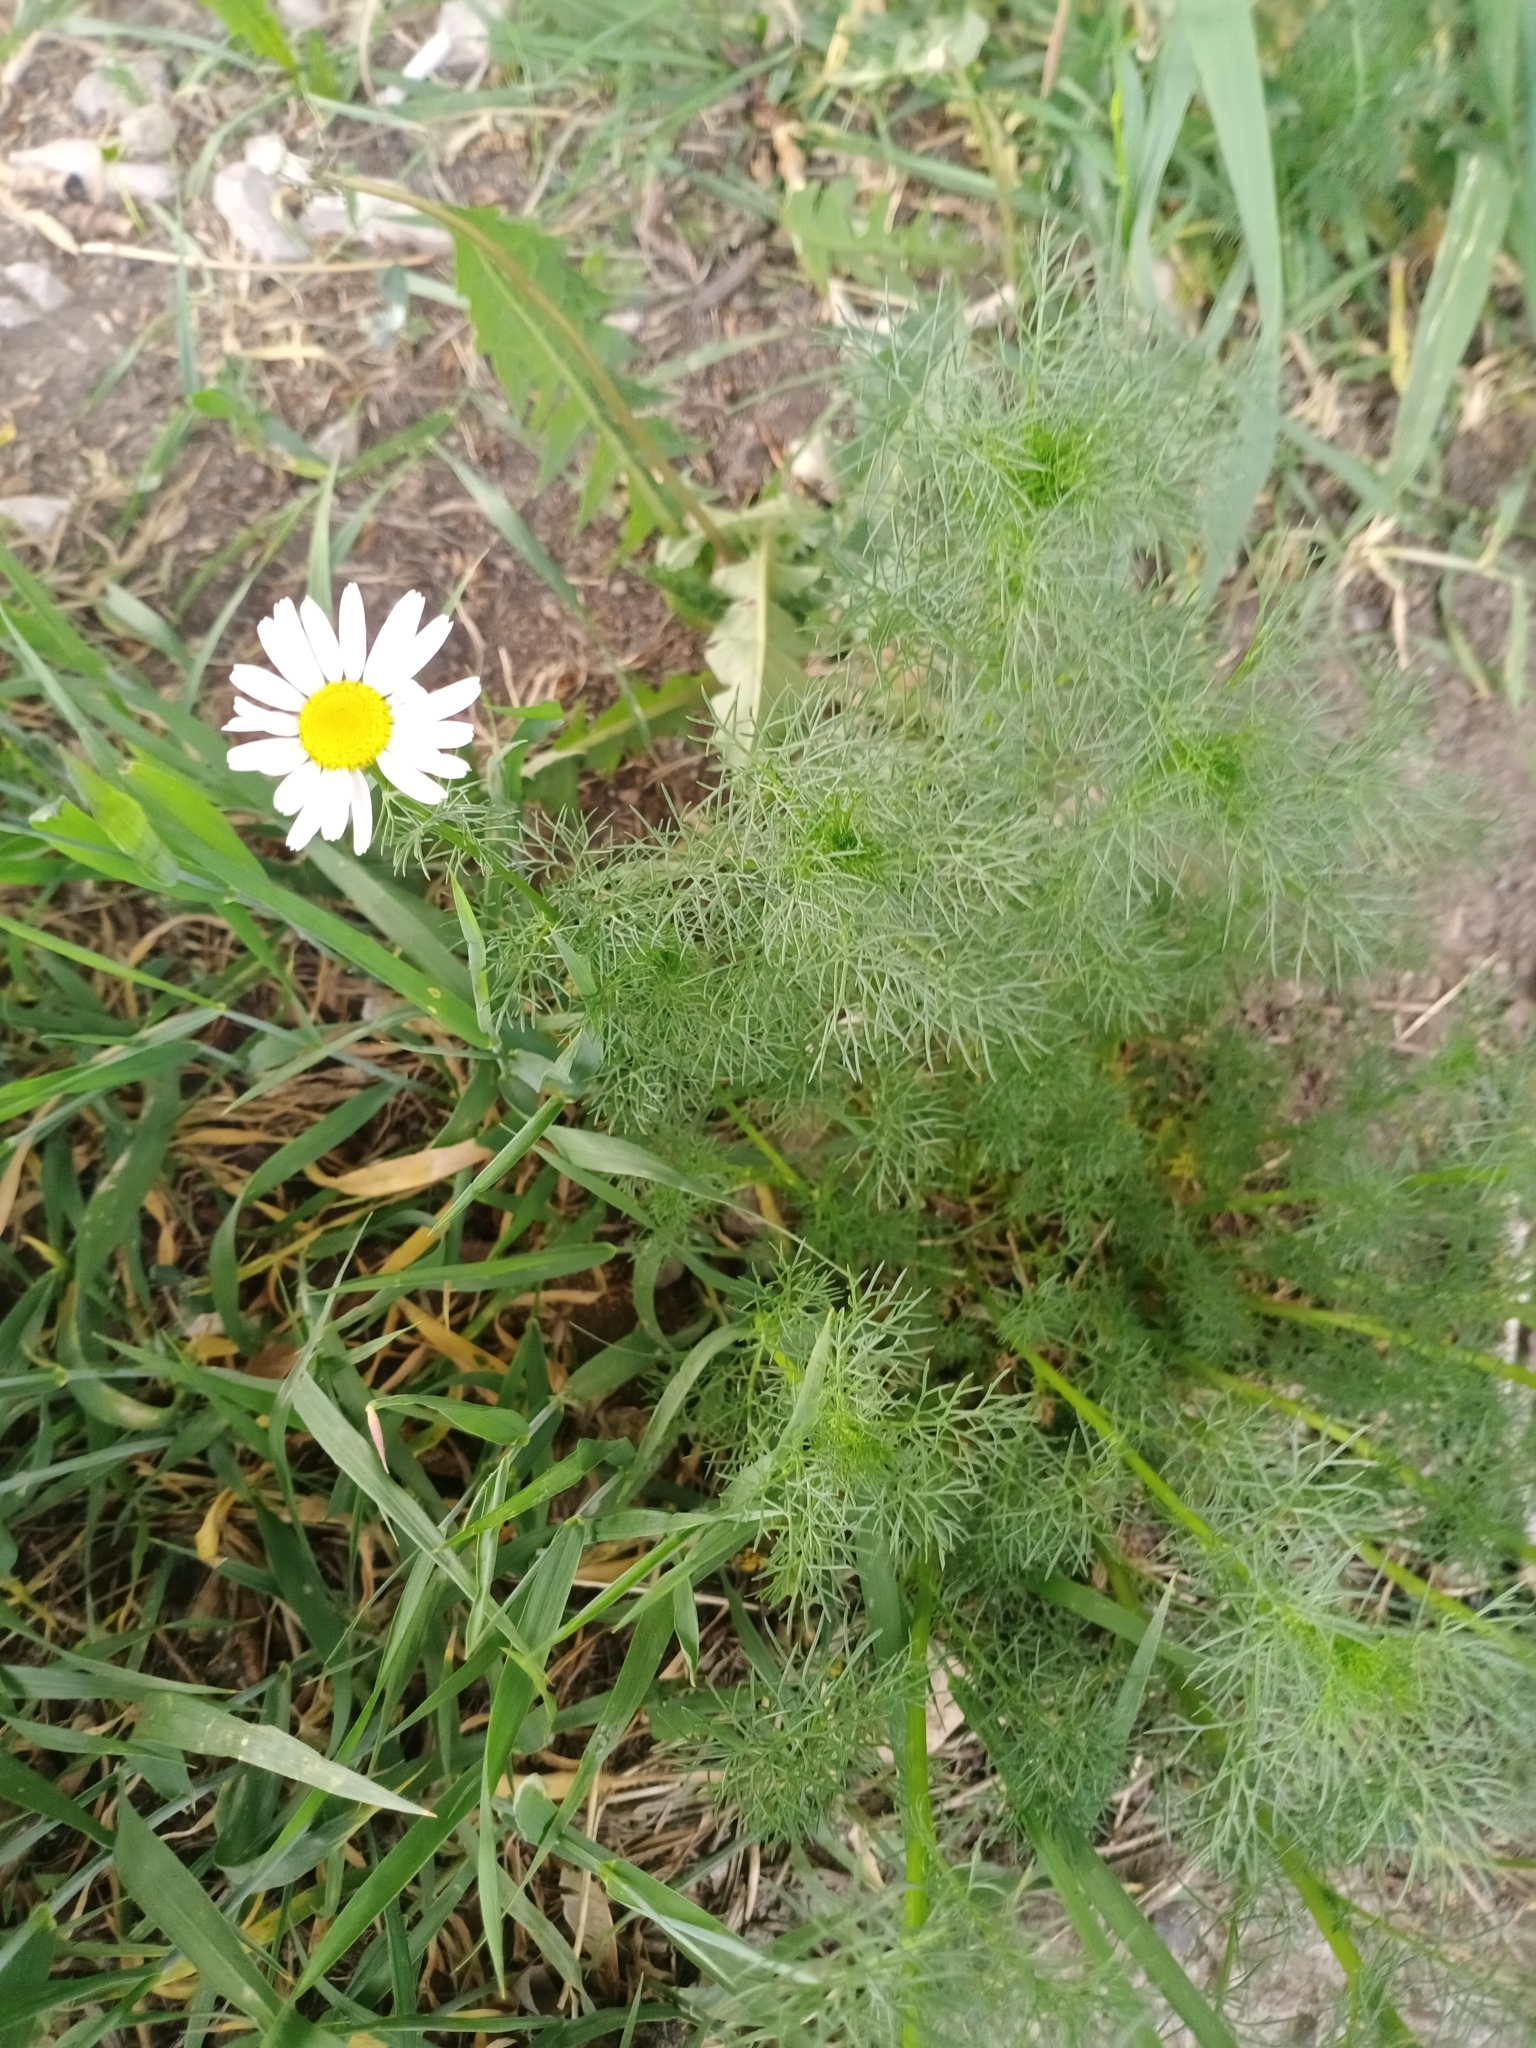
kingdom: Plantae
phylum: Tracheophyta
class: Magnoliopsida
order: Asterales
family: Asteraceae
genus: Tripleurospermum
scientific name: Tripleurospermum inodorum
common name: Scentless mayweed
